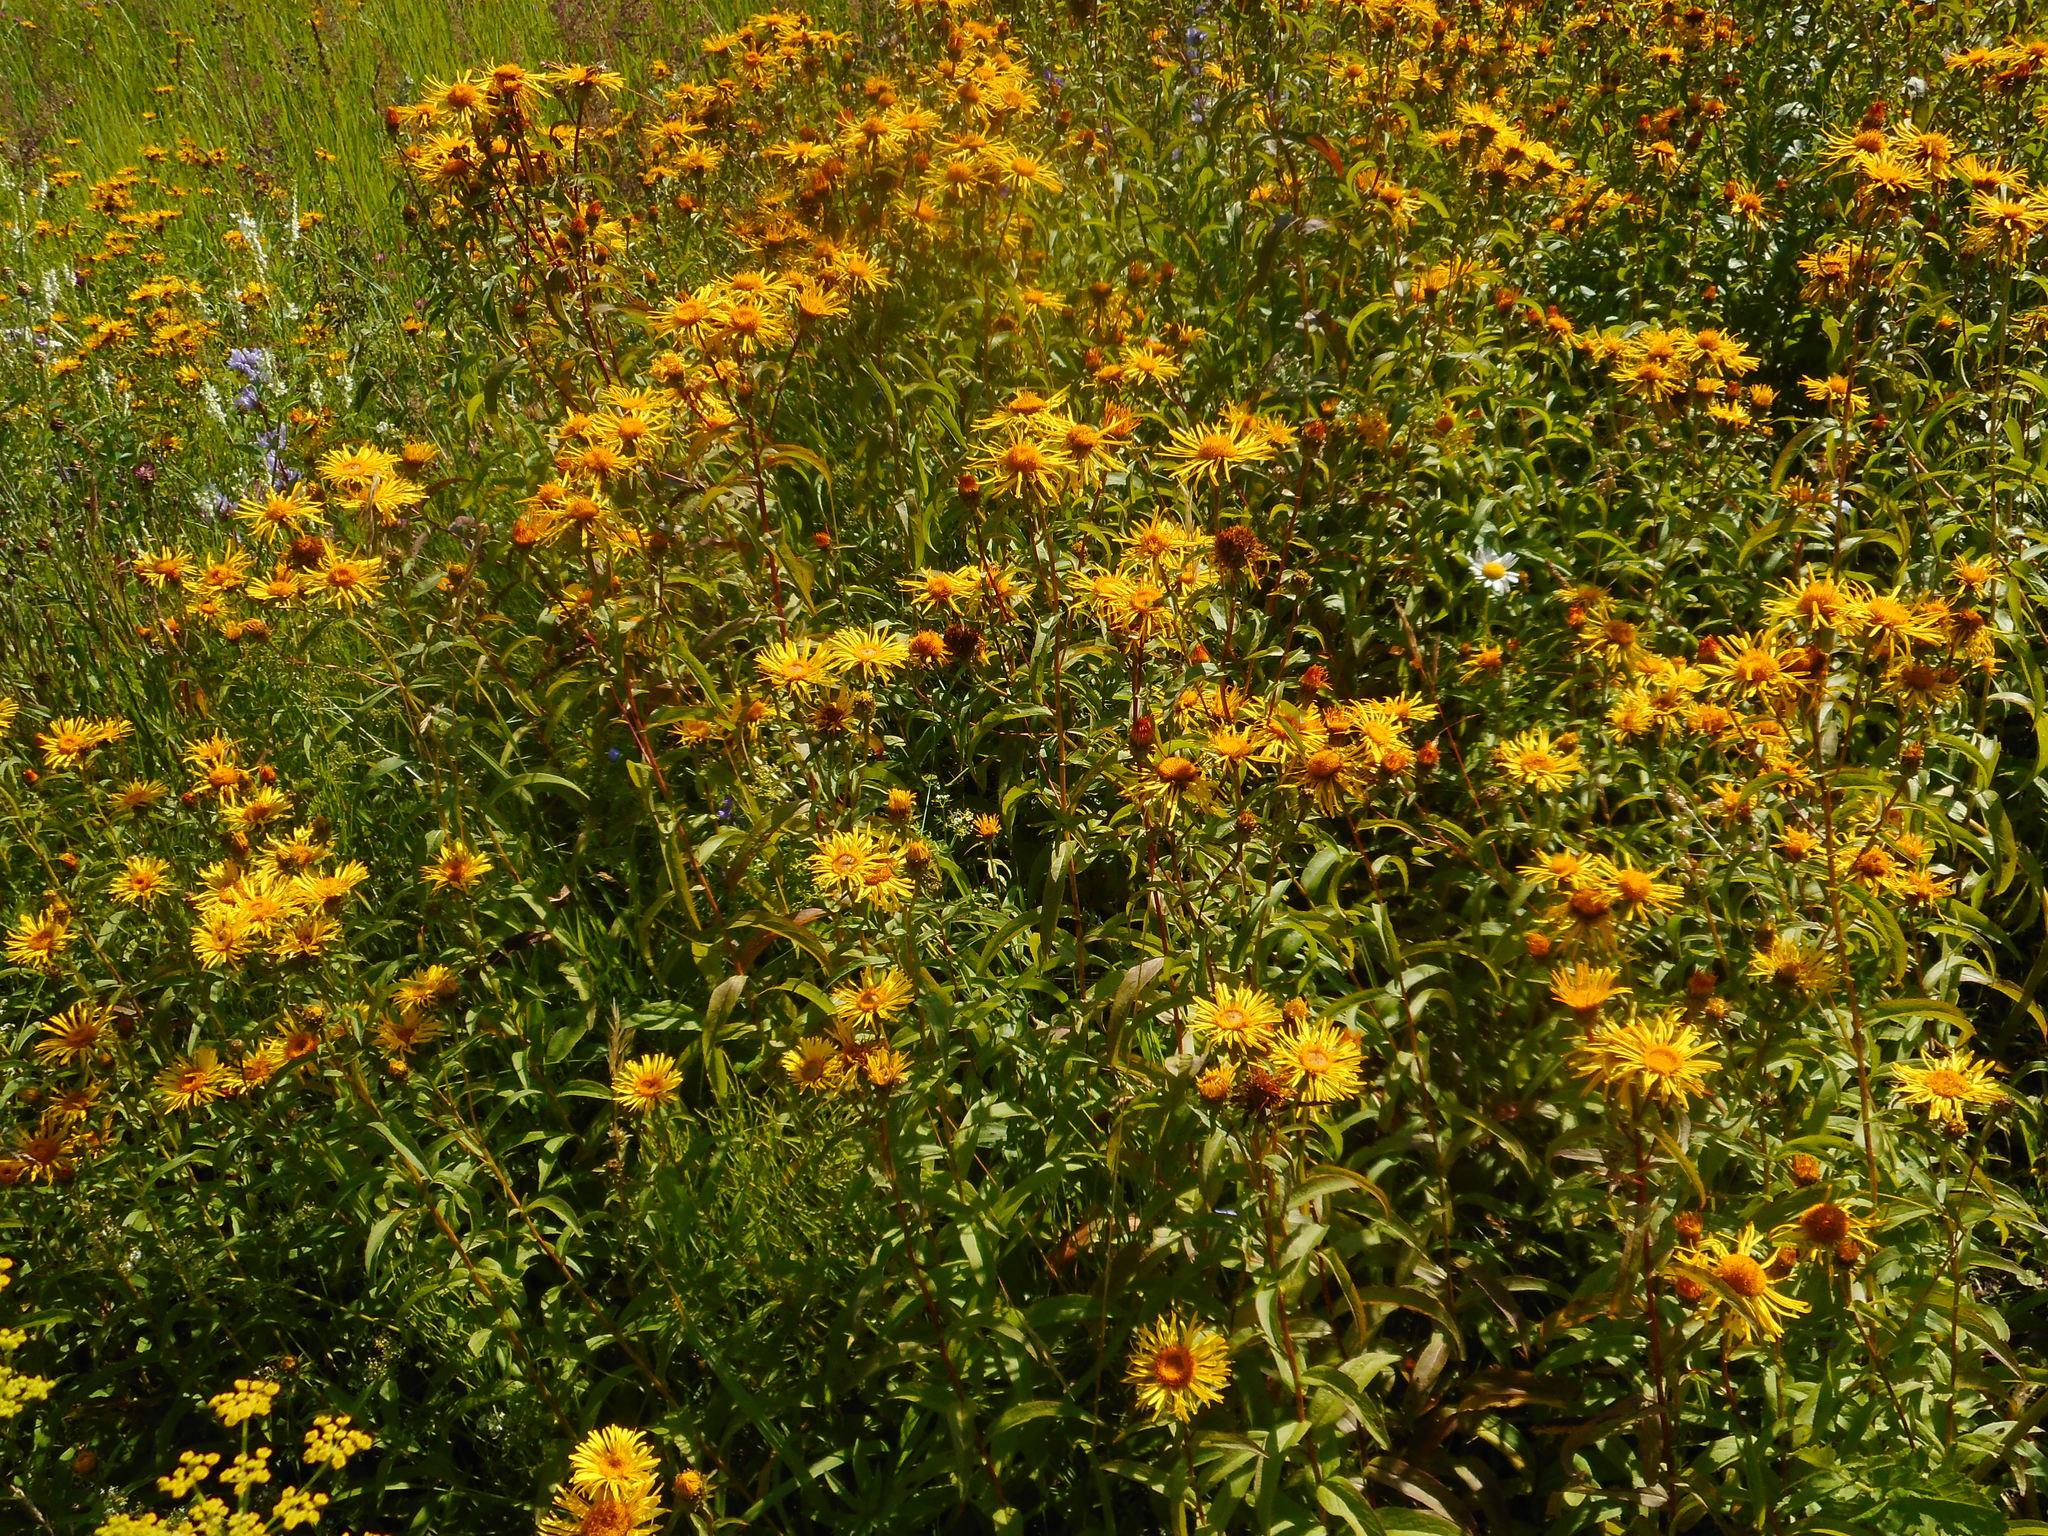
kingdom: Plantae
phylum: Tracheophyta
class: Magnoliopsida
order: Asterales
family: Asteraceae
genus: Pentanema
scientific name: Pentanema salicinum
